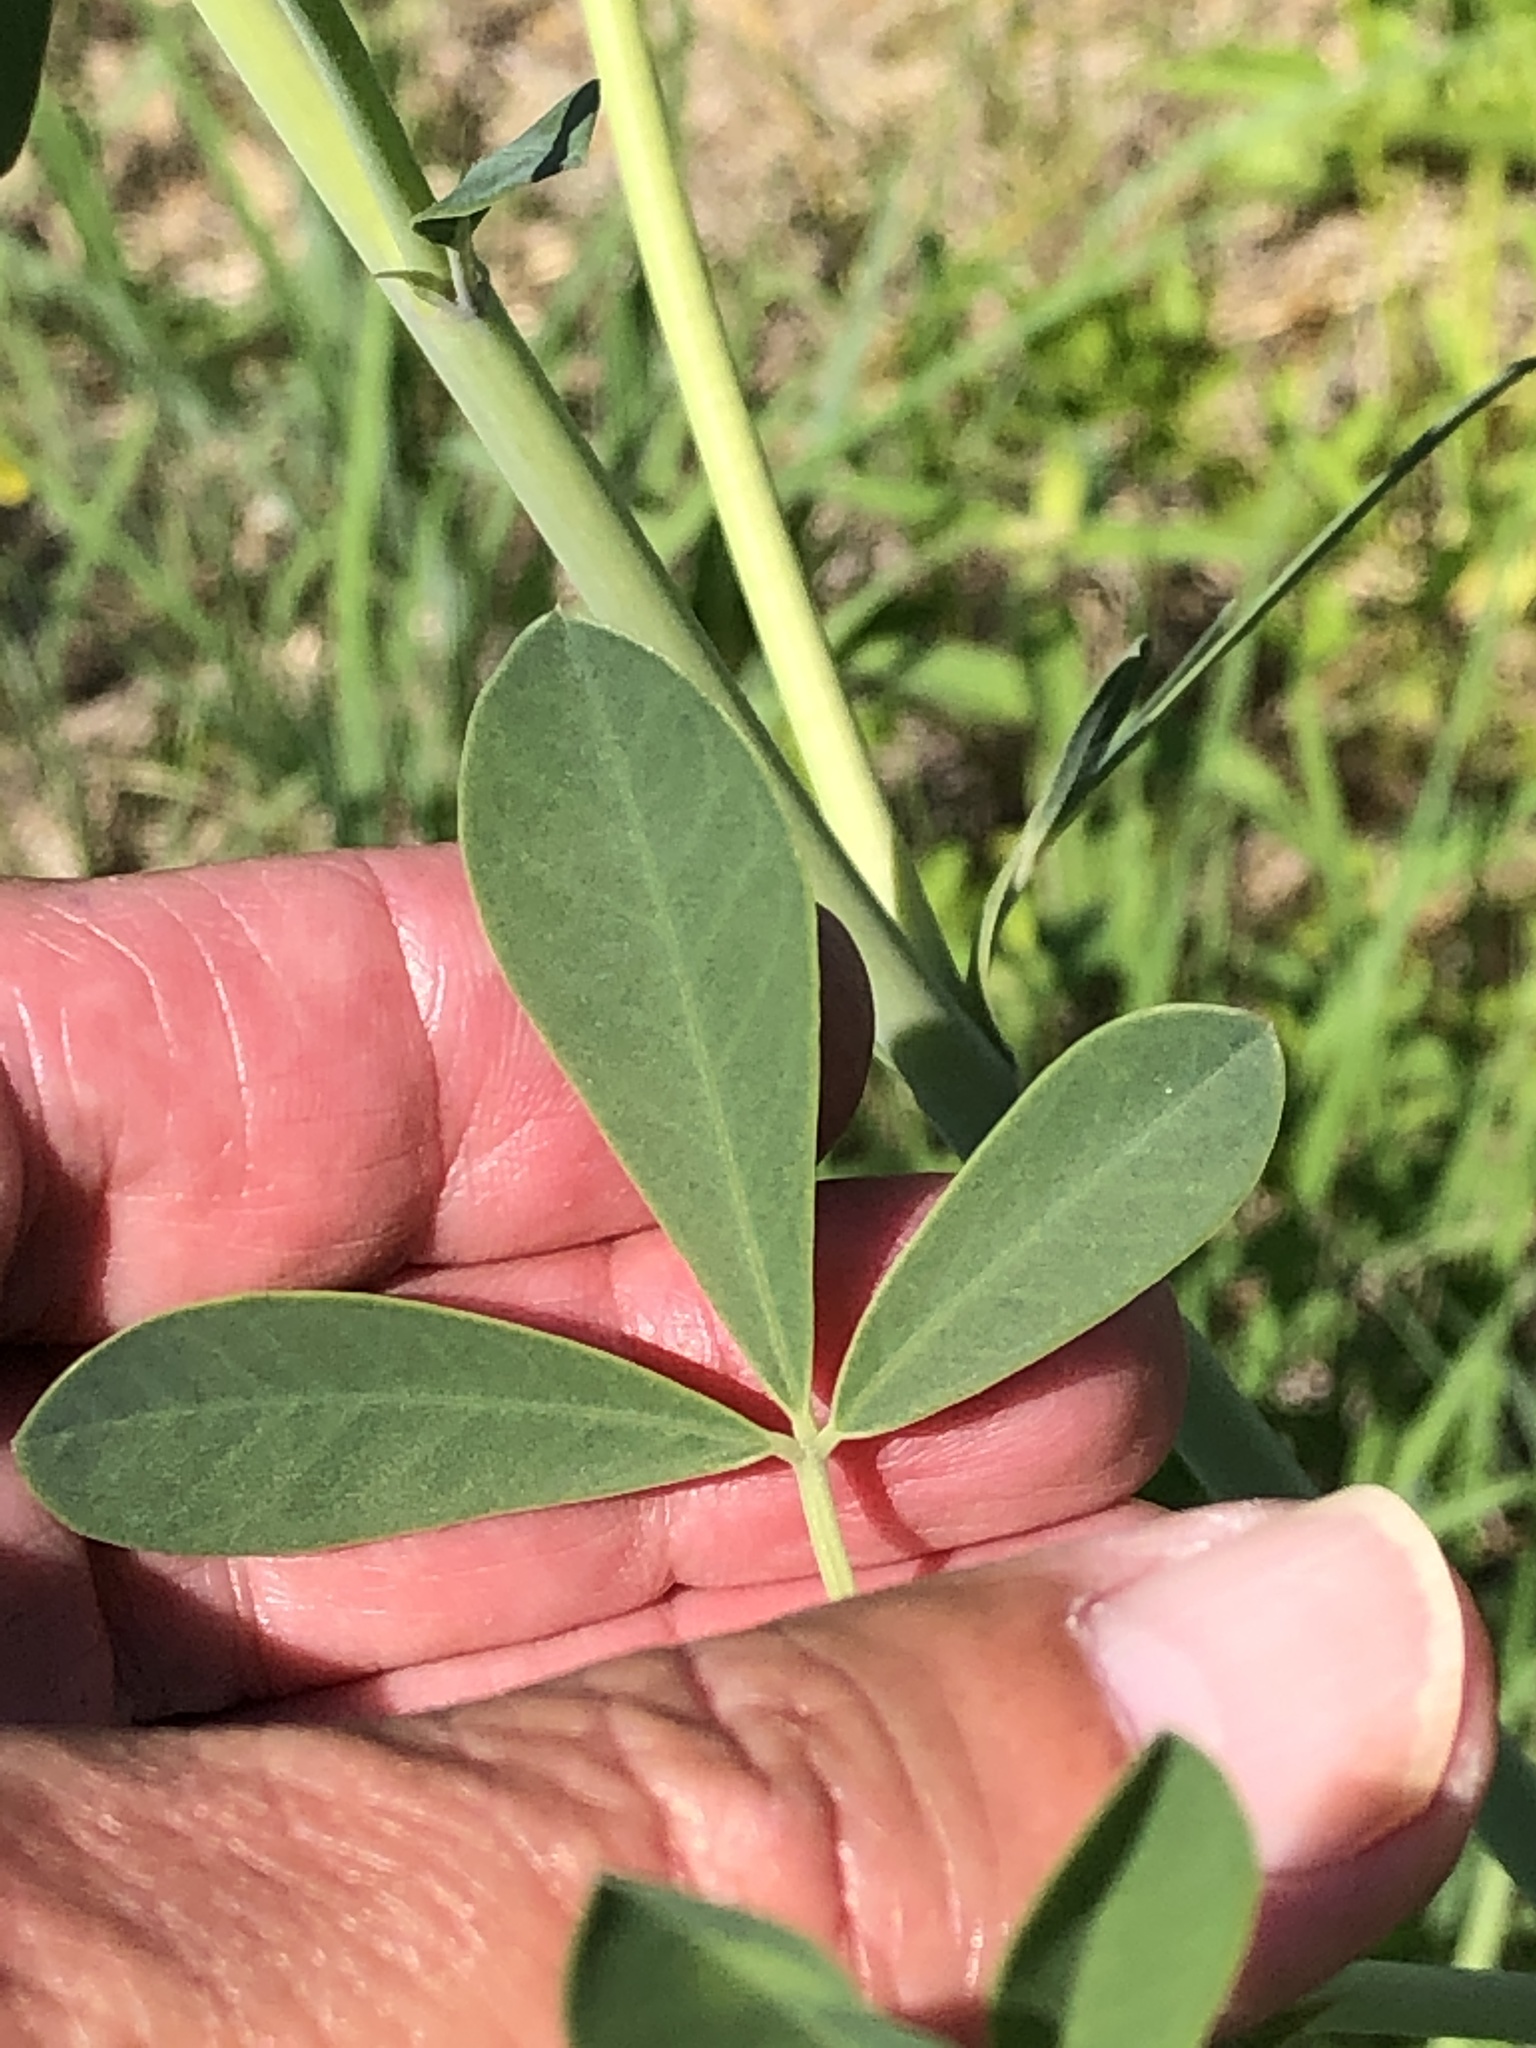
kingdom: Plantae
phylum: Tracheophyta
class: Magnoliopsida
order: Fabales
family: Fabaceae
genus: Baptisia
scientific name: Baptisia alba
